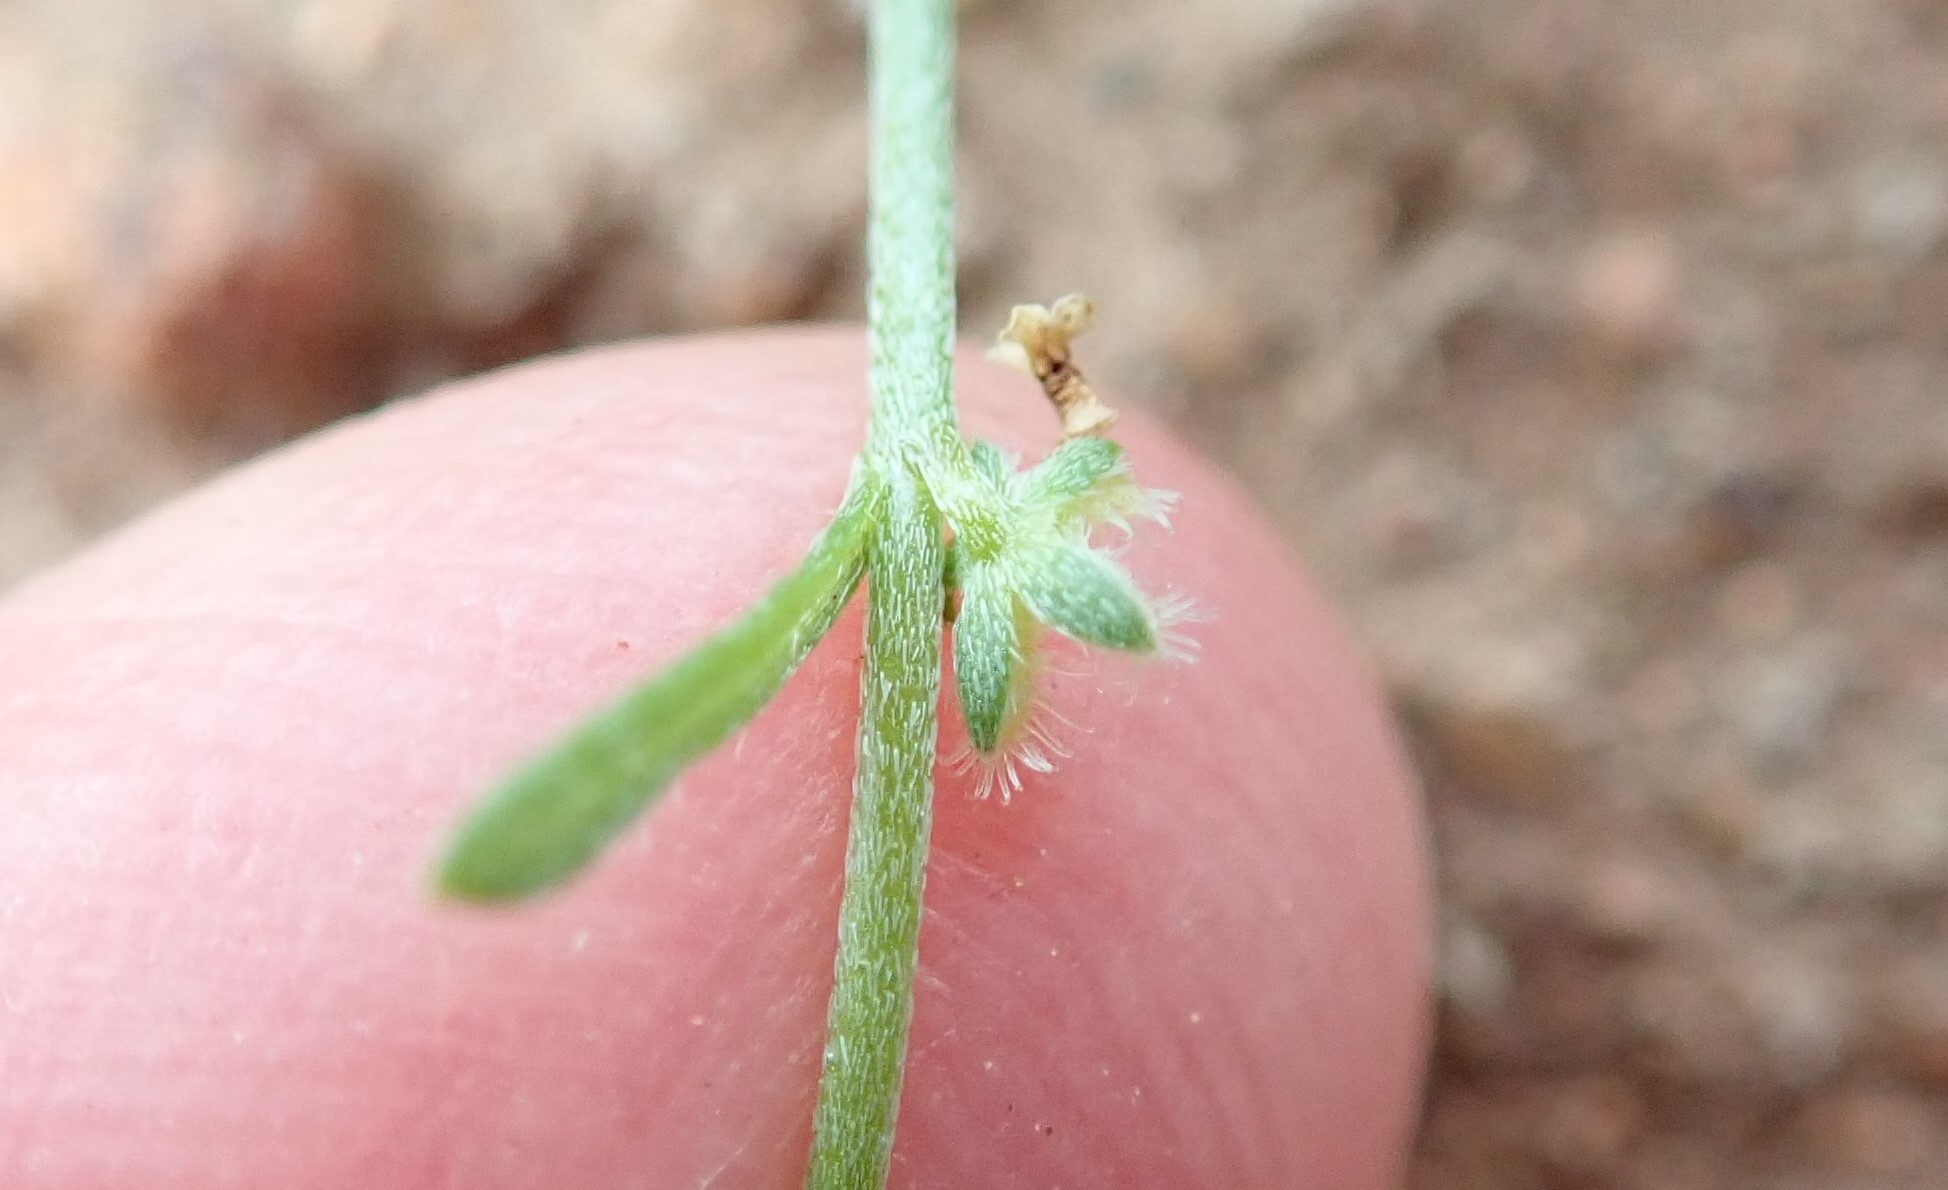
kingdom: Plantae
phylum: Tracheophyta
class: Magnoliopsida
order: Boraginales
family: Boraginaceae
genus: Pectocarya
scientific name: Pectocarya linearis
